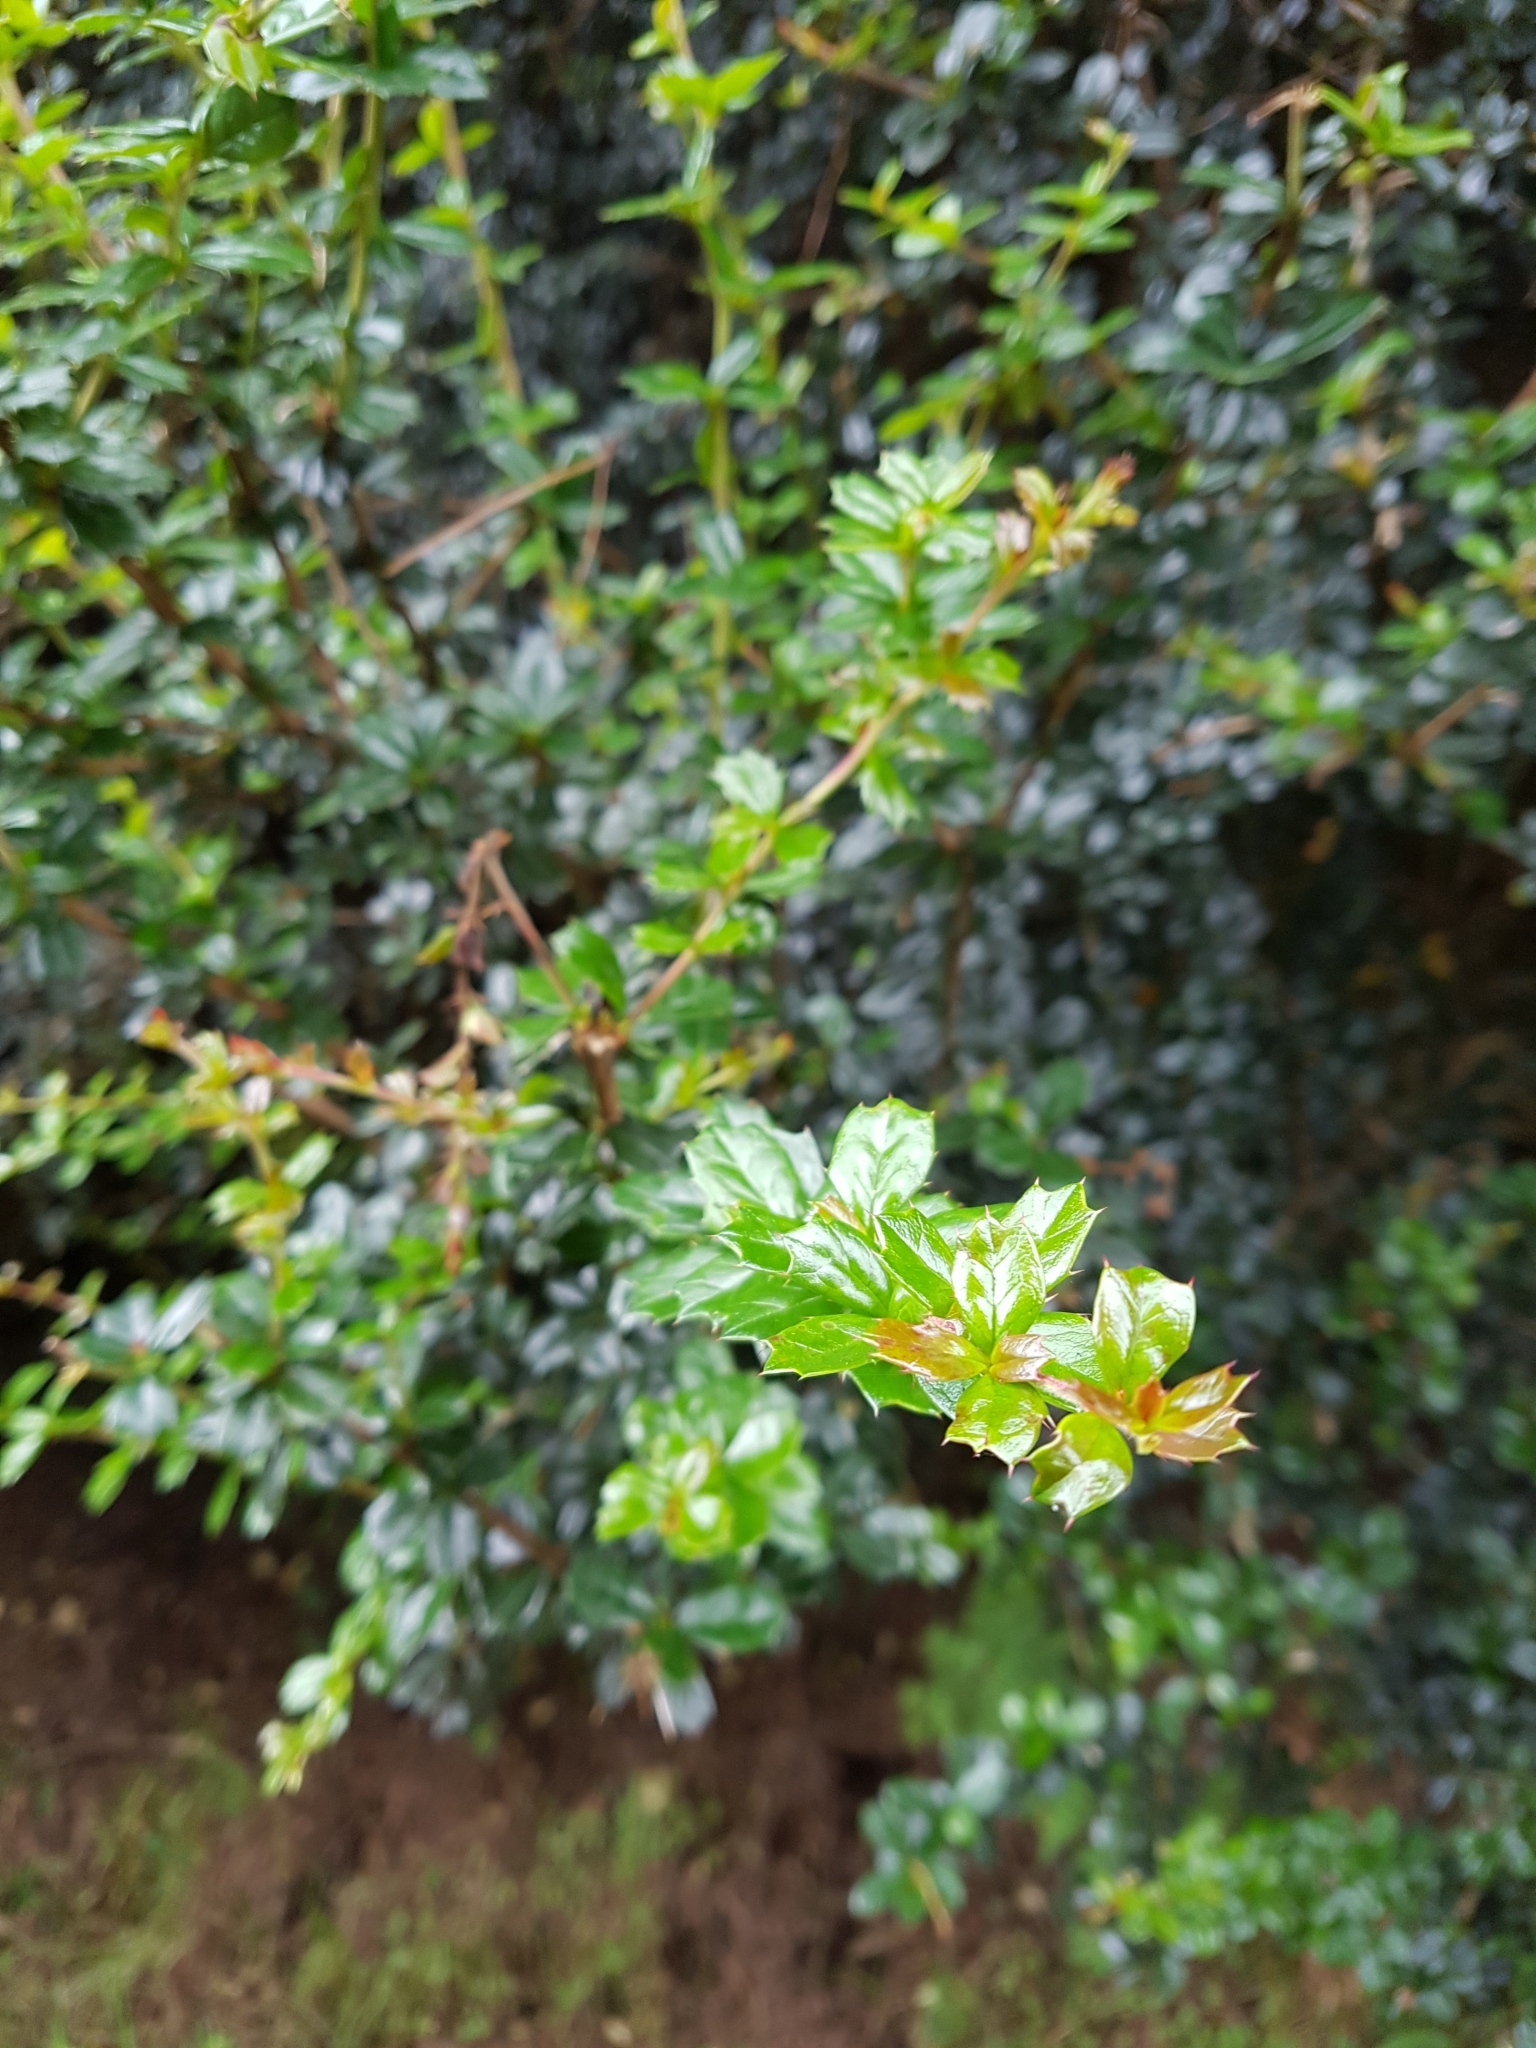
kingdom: Plantae
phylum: Tracheophyta
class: Magnoliopsida
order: Ranunculales
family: Berberidaceae
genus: Berberis
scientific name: Berberis darwinii
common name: Darwin's barberry
